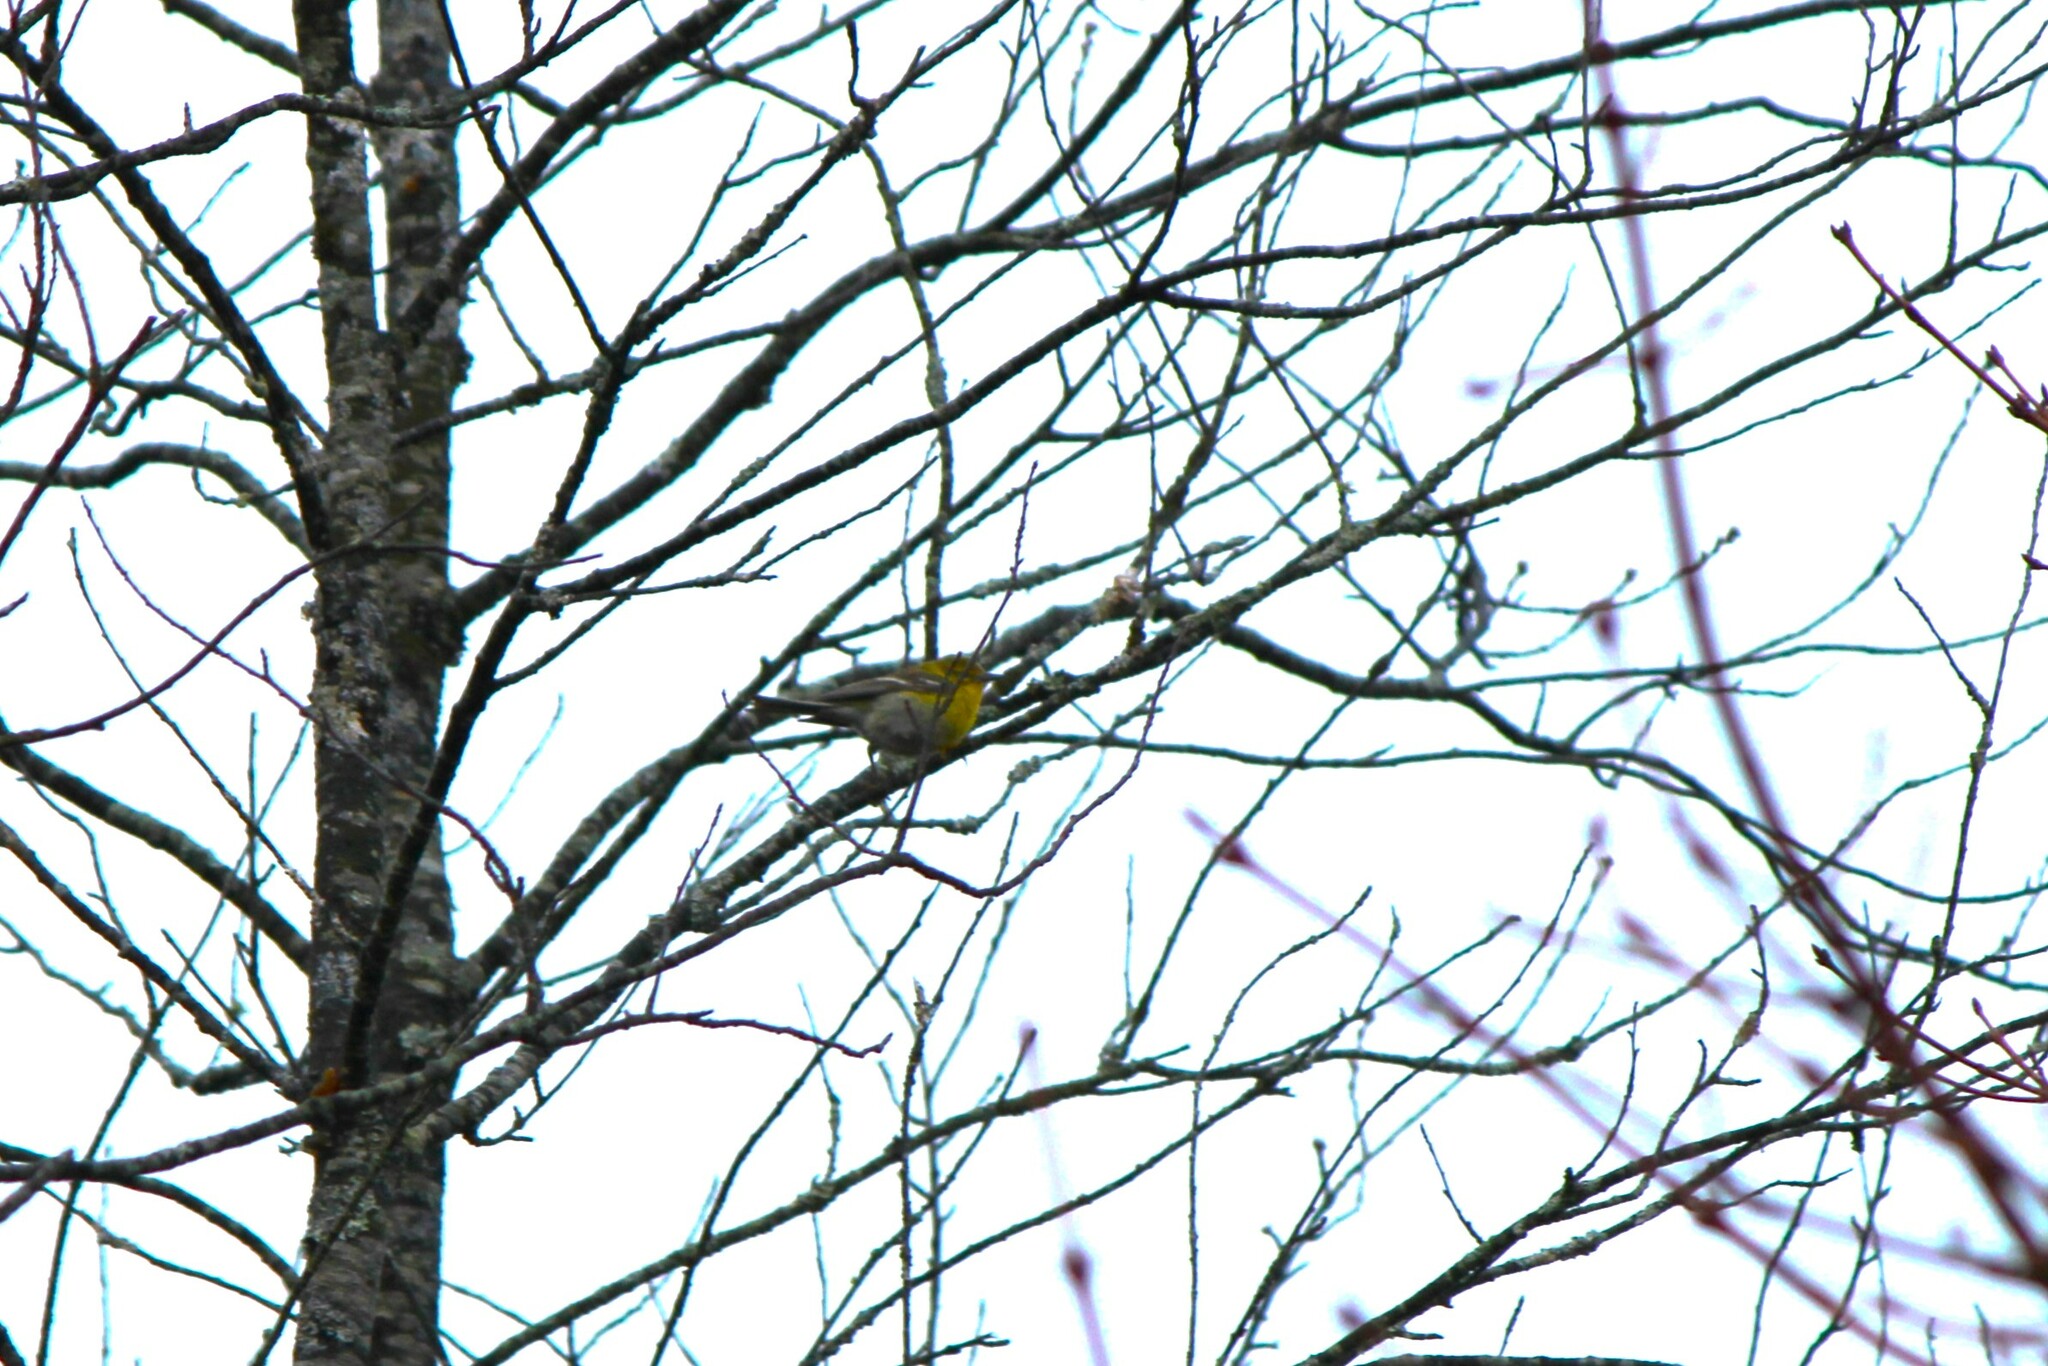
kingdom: Animalia
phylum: Chordata
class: Aves
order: Passeriformes
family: Parulidae
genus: Setophaga
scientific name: Setophaga pinus
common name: Pine warbler
